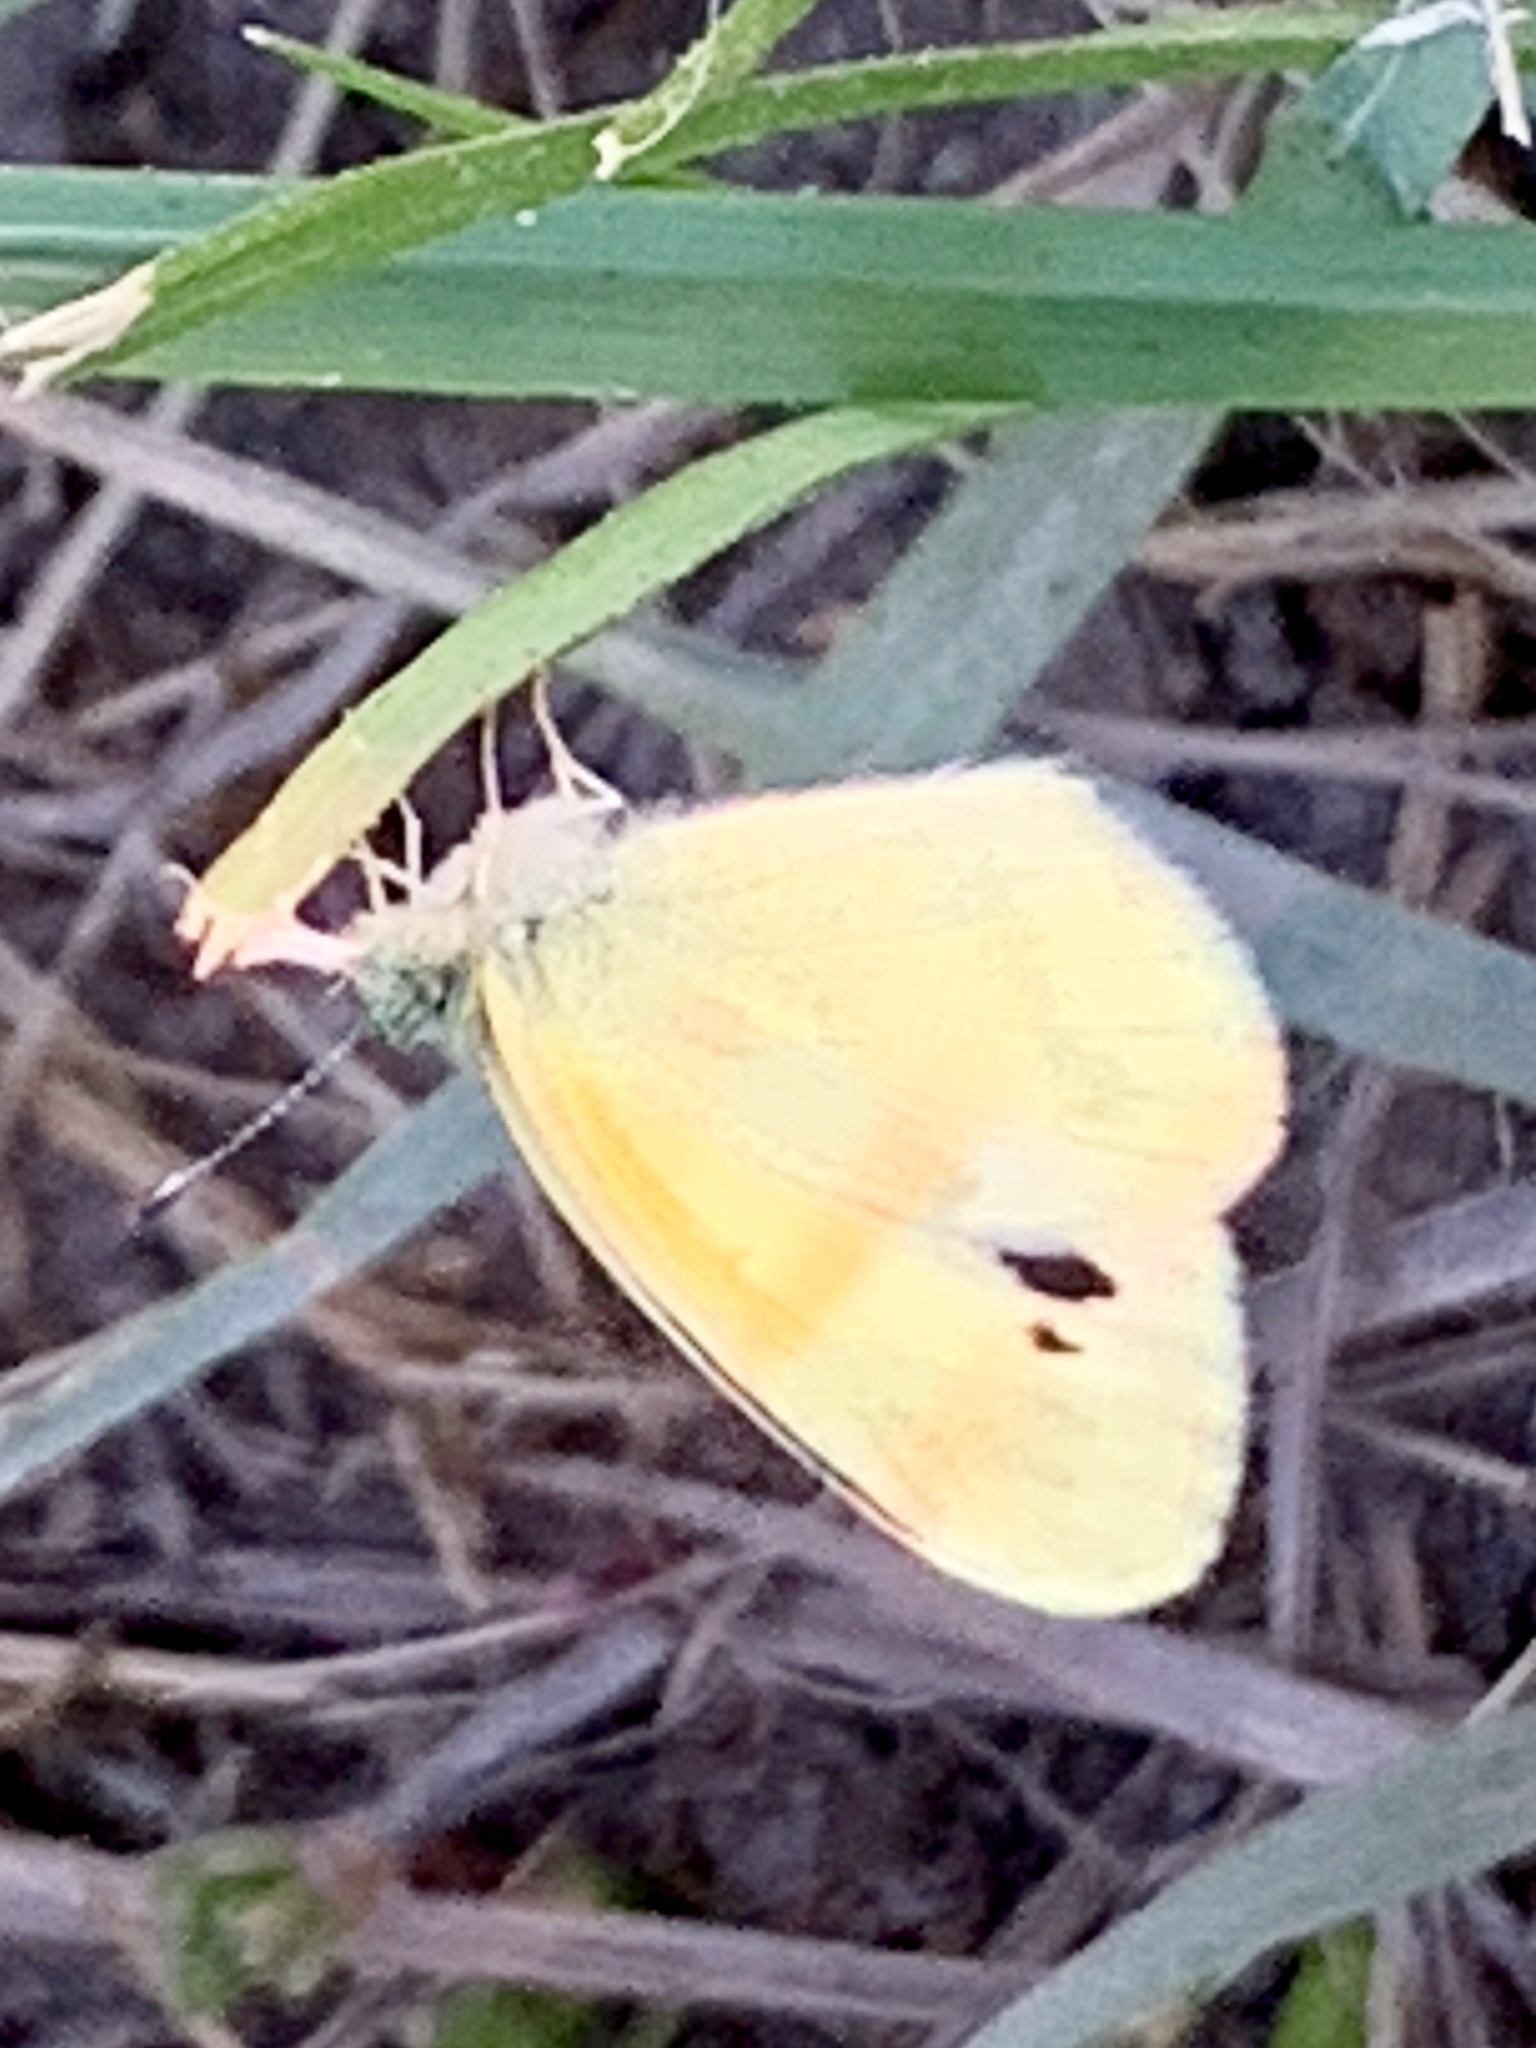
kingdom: Animalia
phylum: Arthropoda
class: Insecta
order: Lepidoptera
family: Pieridae
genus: Nathalis
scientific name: Nathalis iole
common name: Dainty sulphur
